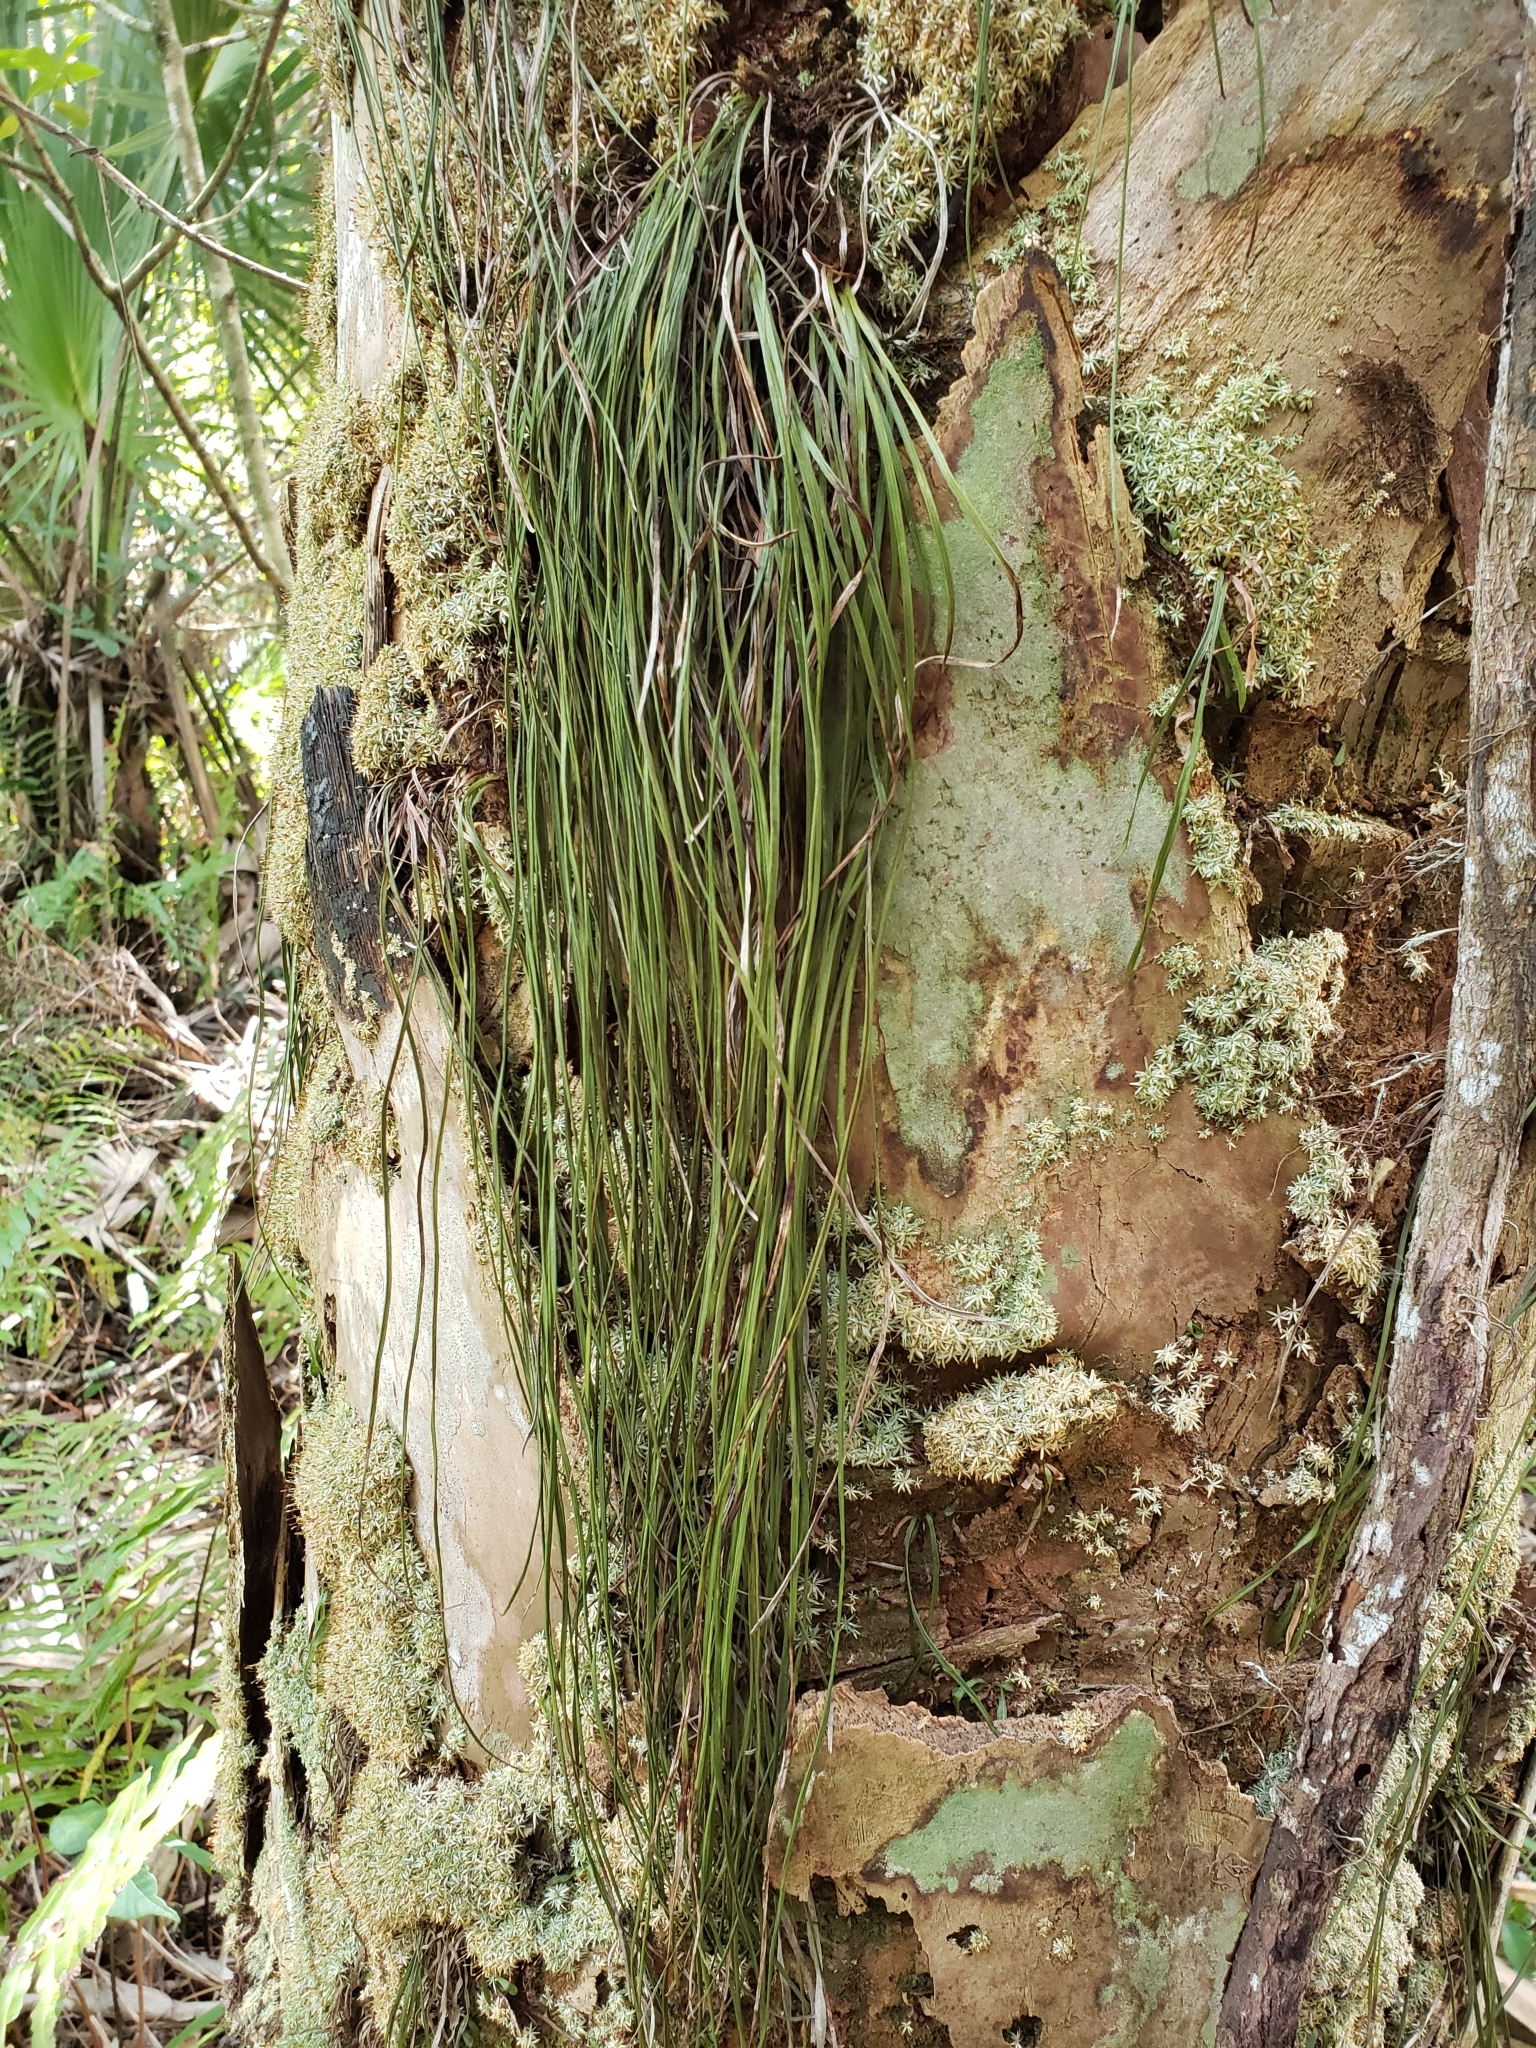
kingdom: Plantae
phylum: Tracheophyta
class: Polypodiopsida
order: Polypodiales
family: Pteridaceae
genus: Vittaria
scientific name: Vittaria lineata
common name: Shoestring fern
